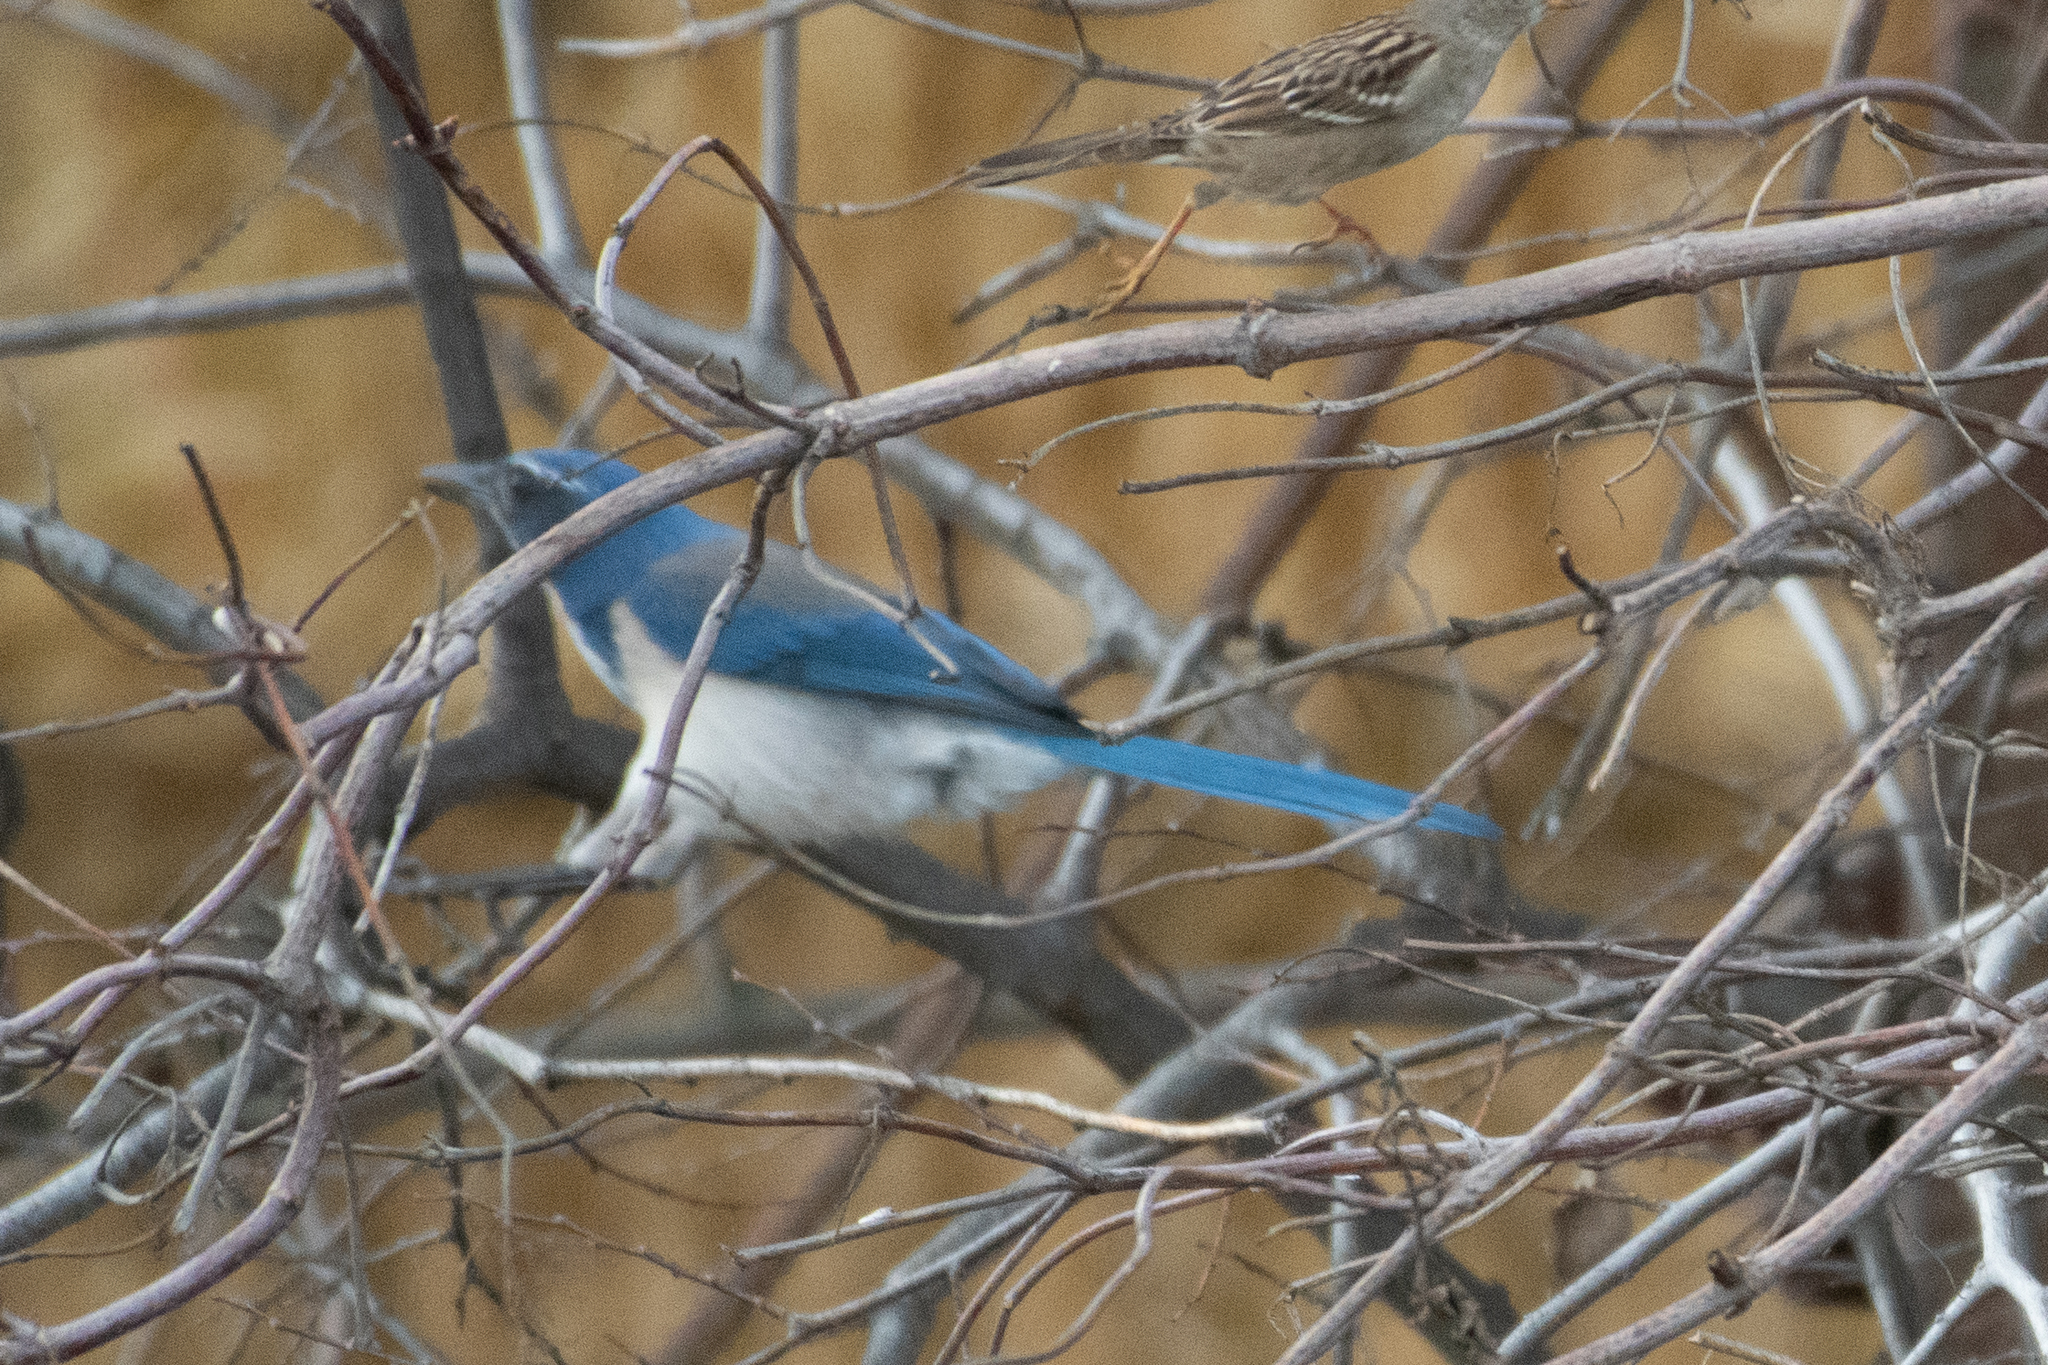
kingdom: Animalia
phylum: Chordata
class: Aves
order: Passeriformes
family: Corvidae
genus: Aphelocoma
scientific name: Aphelocoma californica
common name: California scrub-jay
